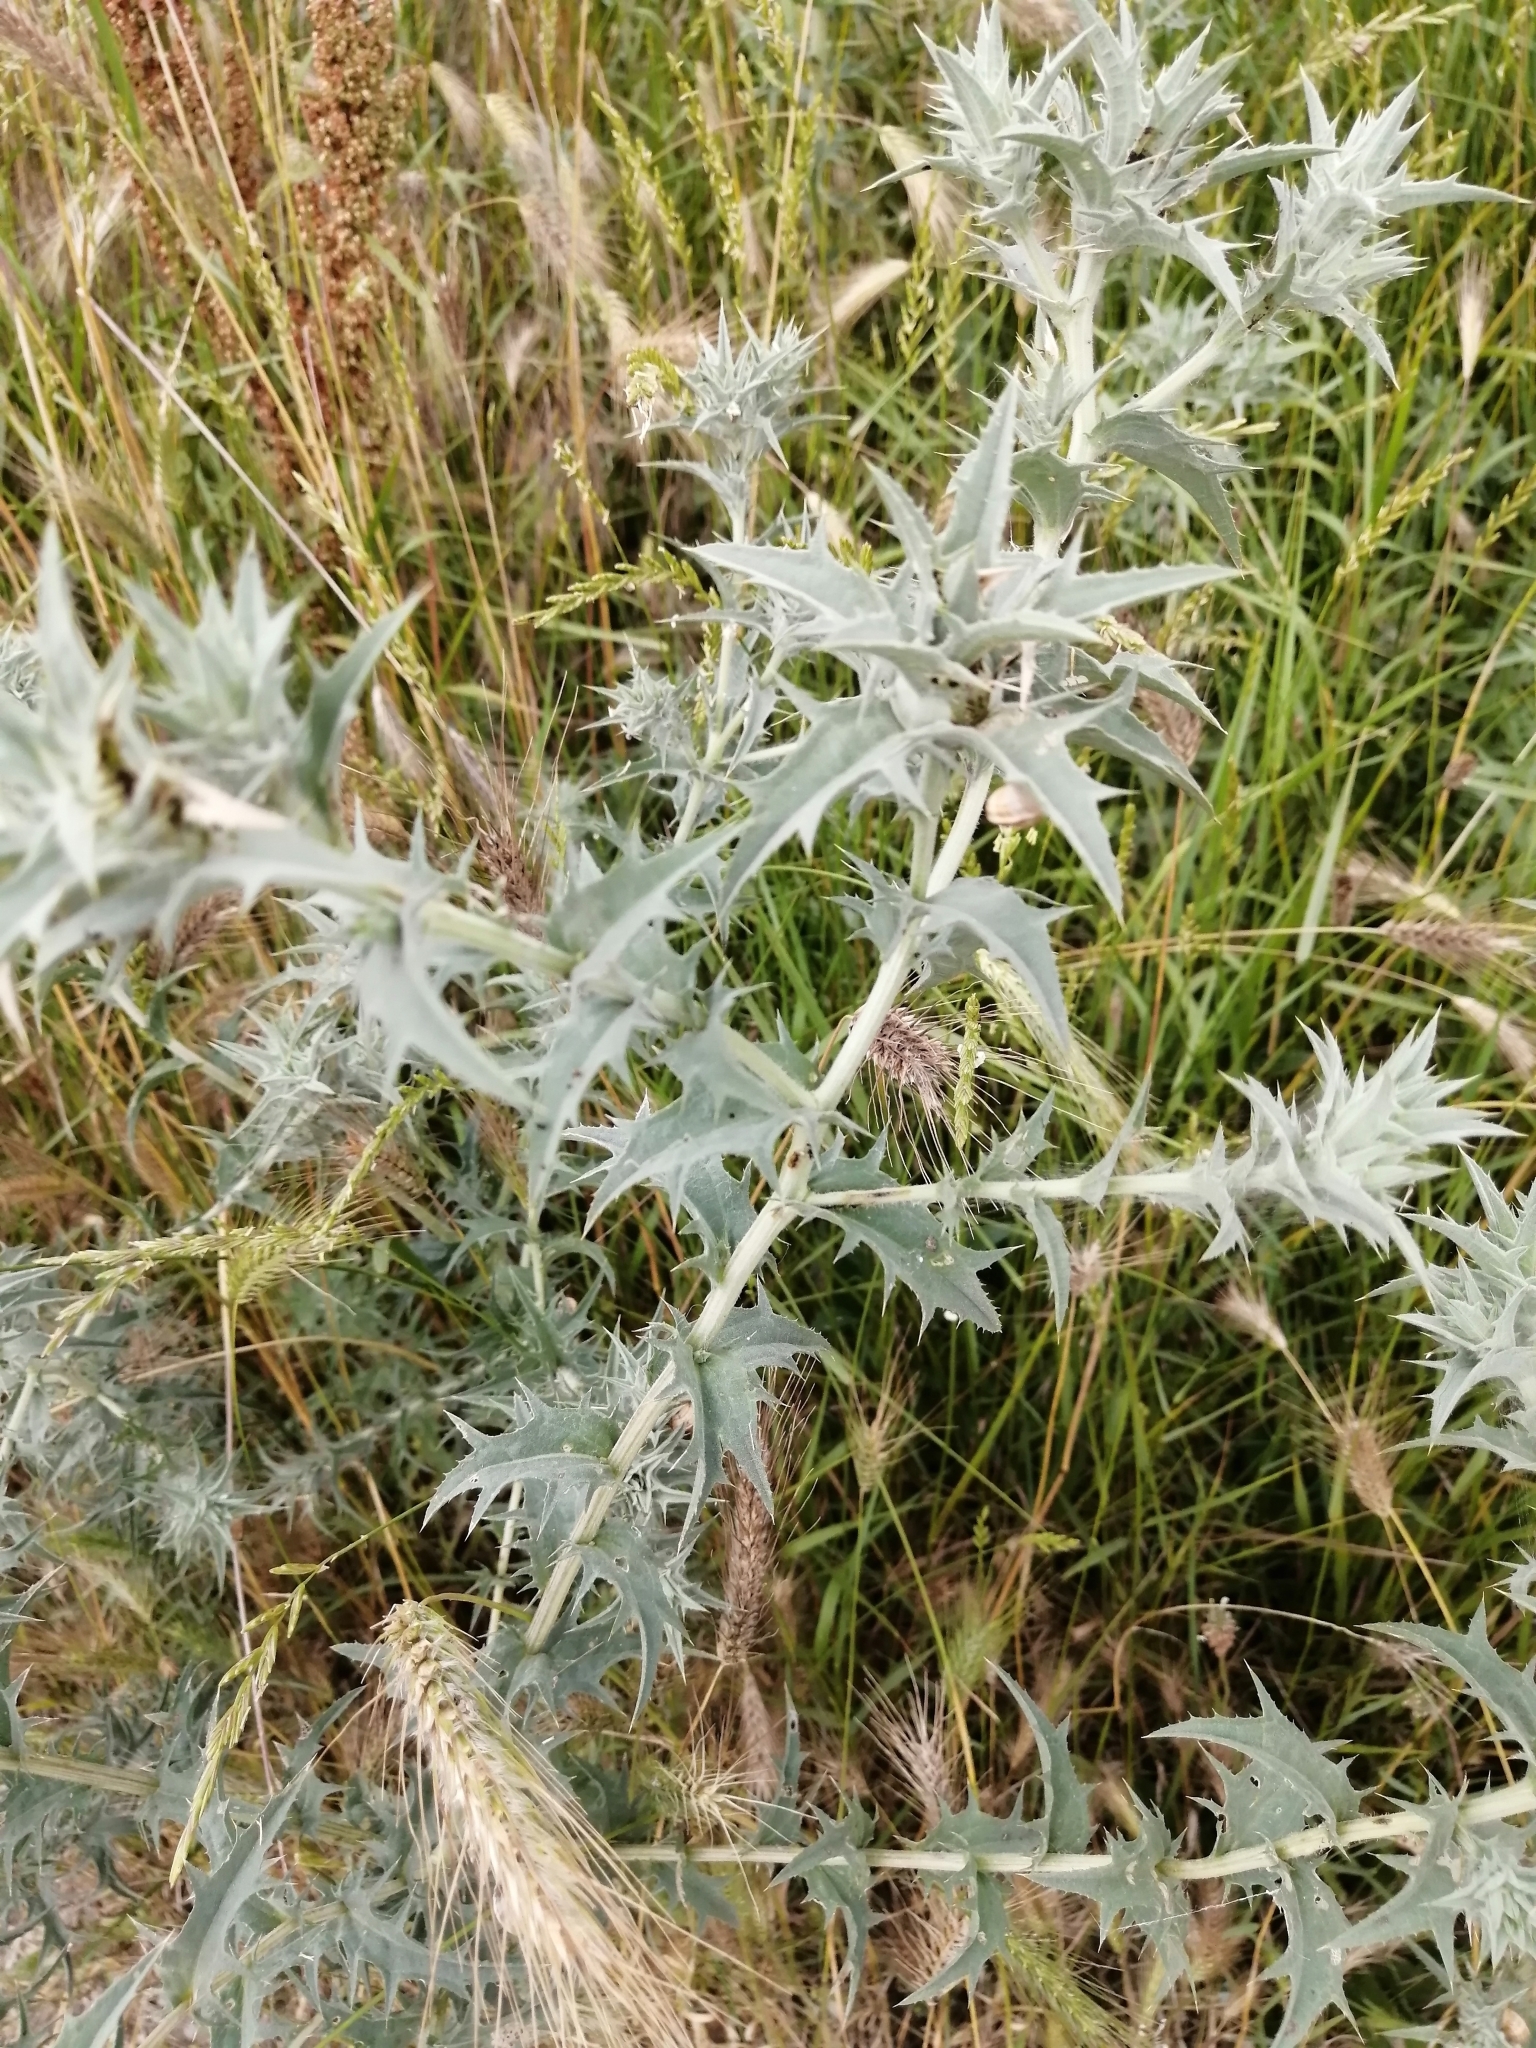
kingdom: Plantae
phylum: Tracheophyta
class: Magnoliopsida
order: Asterales
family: Asteraceae
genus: Carthamus
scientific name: Carthamus lanatus
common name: Downy safflower
